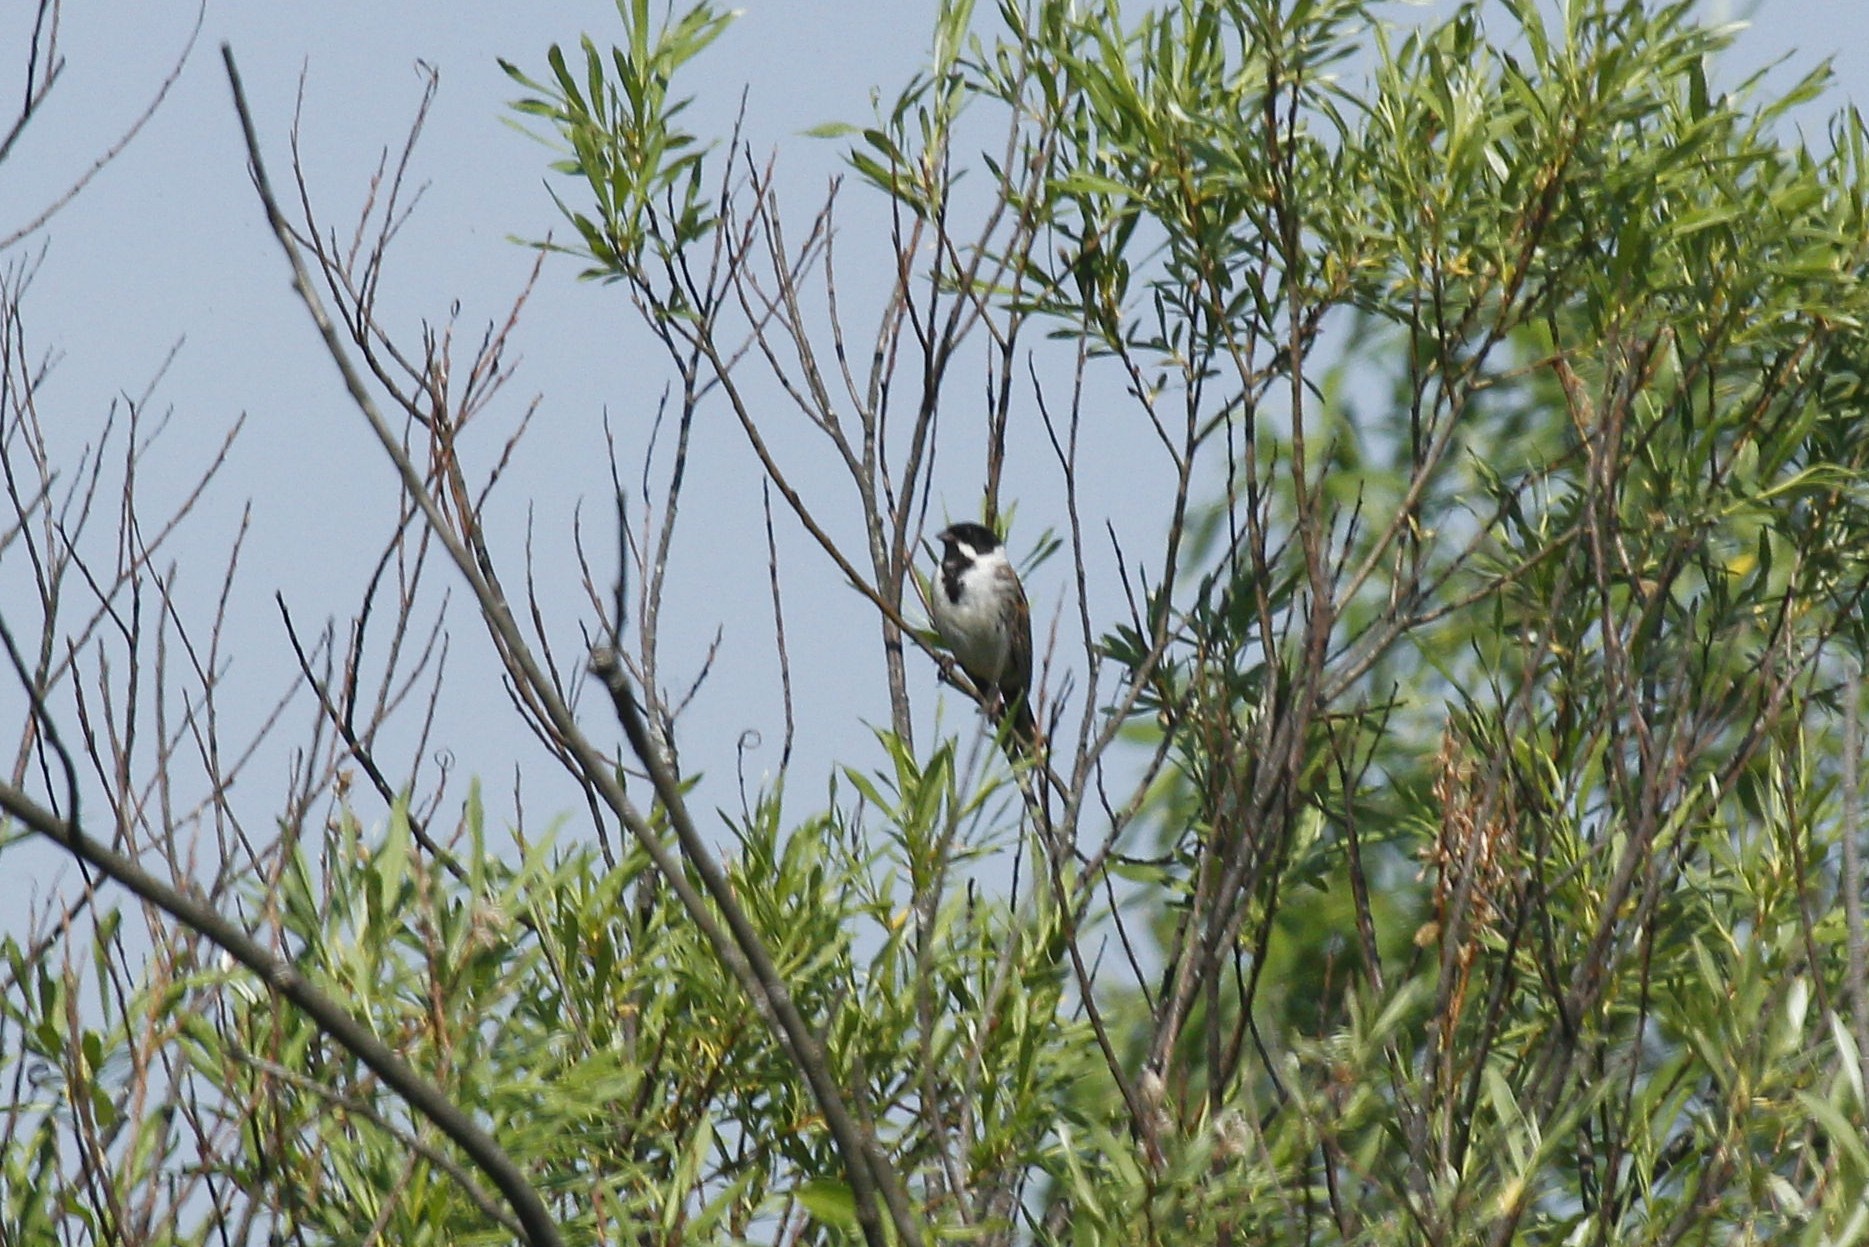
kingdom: Animalia
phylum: Chordata
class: Aves
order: Passeriformes
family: Emberizidae
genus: Emberiza
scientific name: Emberiza schoeniclus
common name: Reed bunting
